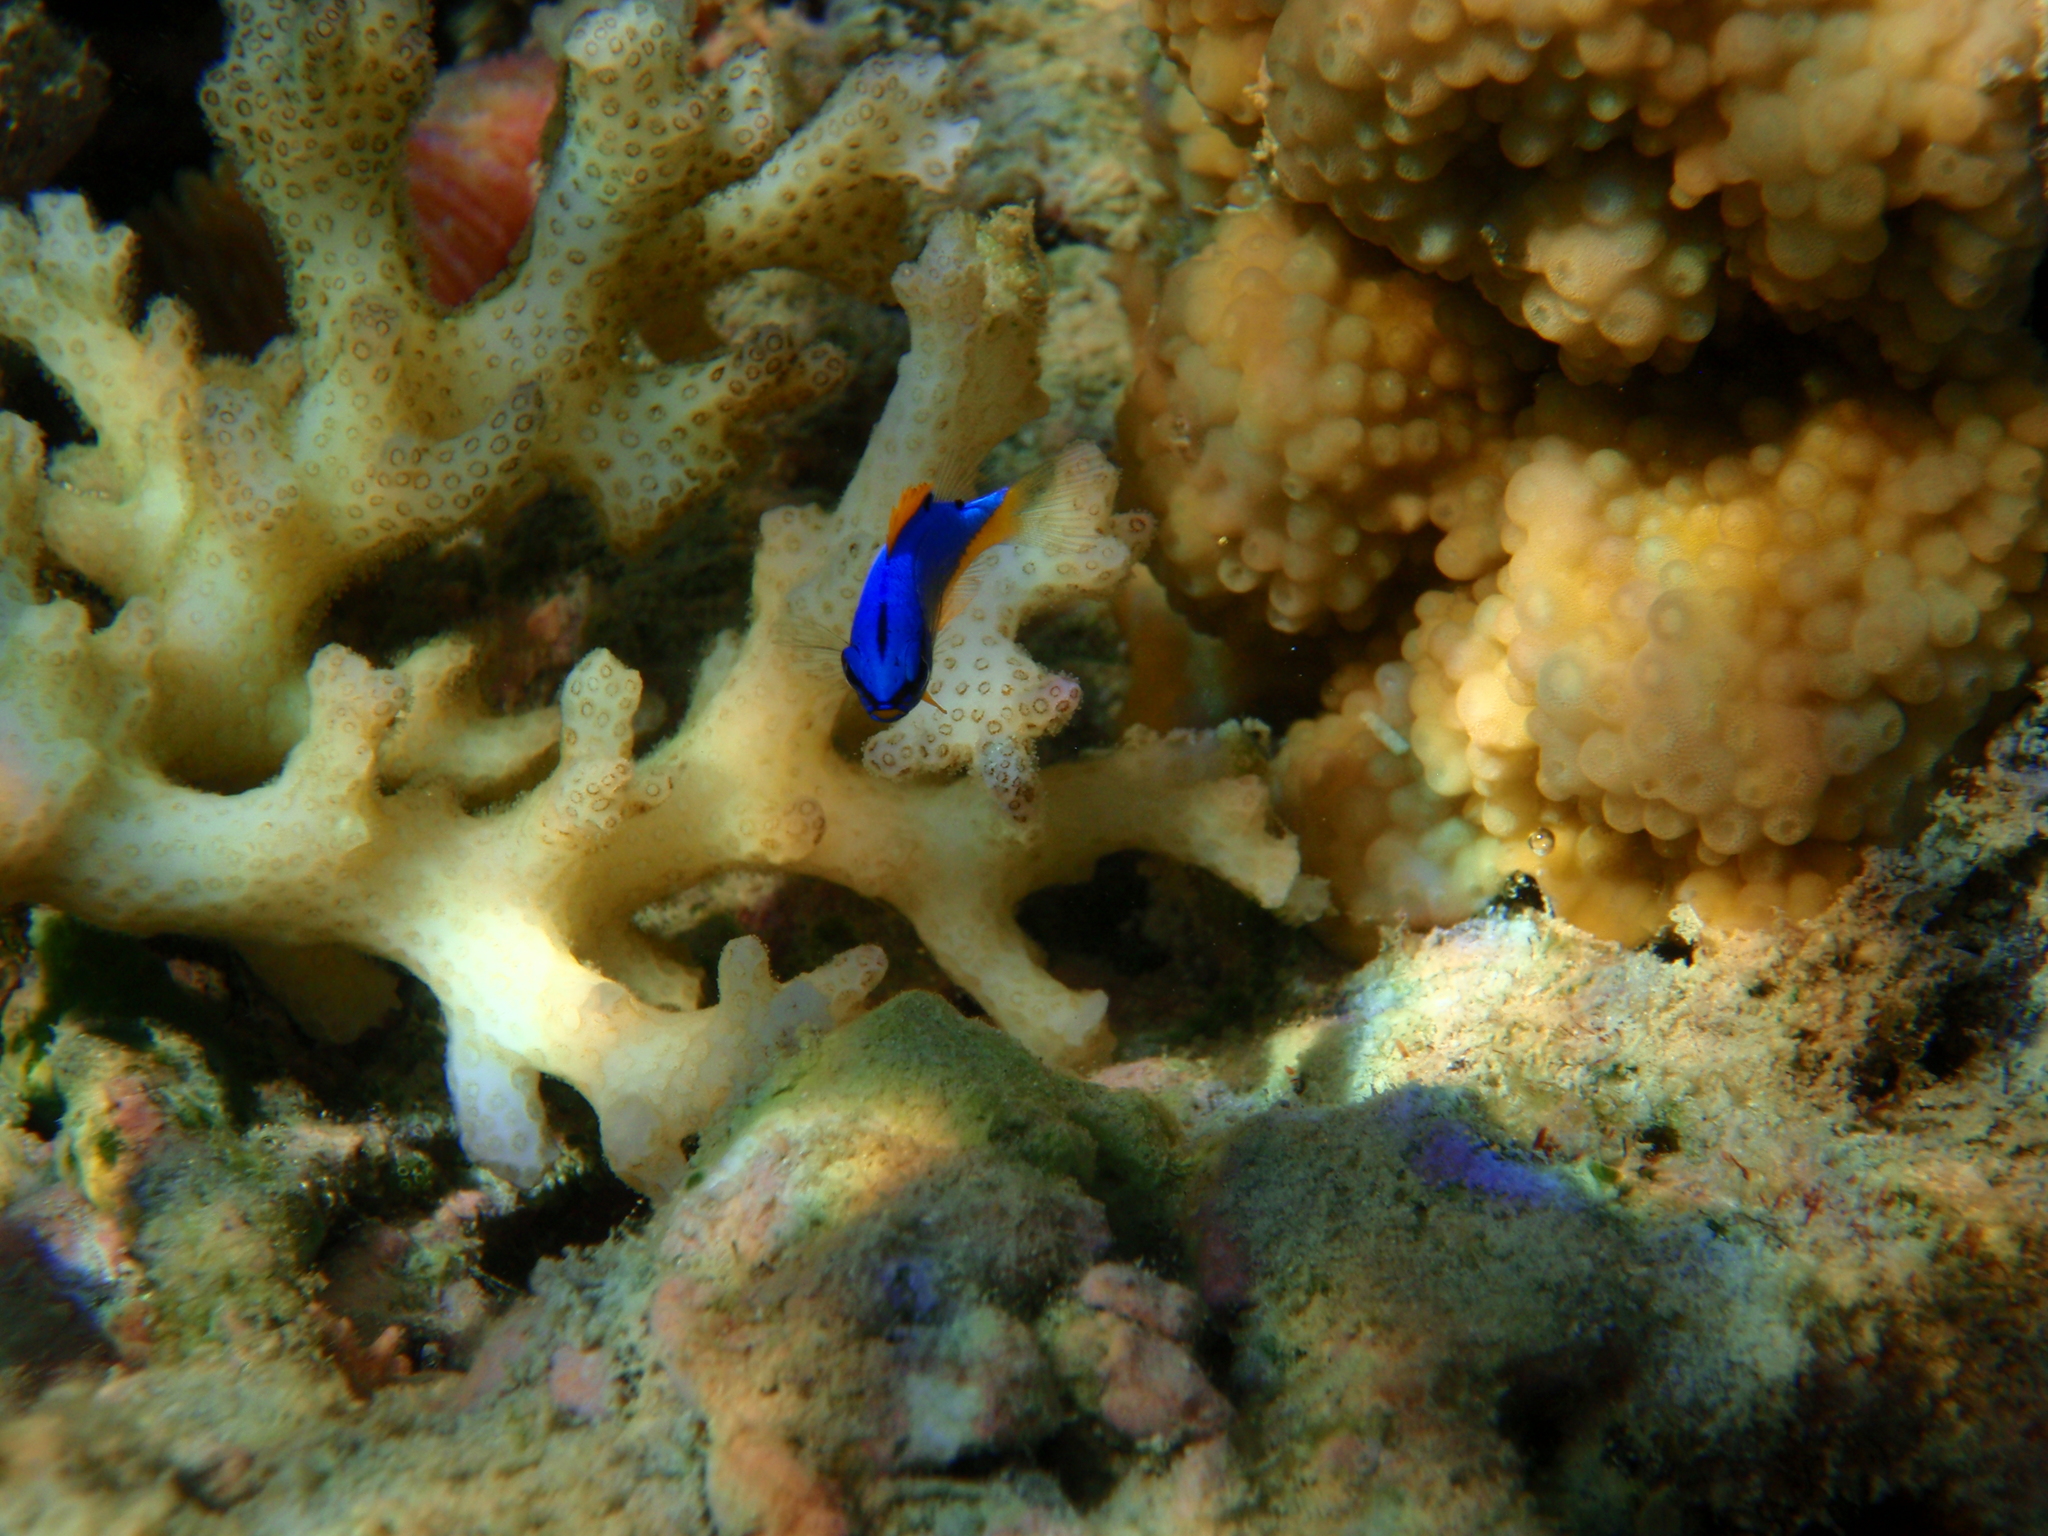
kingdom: Animalia
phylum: Chordata
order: Perciformes
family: Pomacentridae
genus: Chrysiptera
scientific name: Chrysiptera taupou
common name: Fiji damsel
